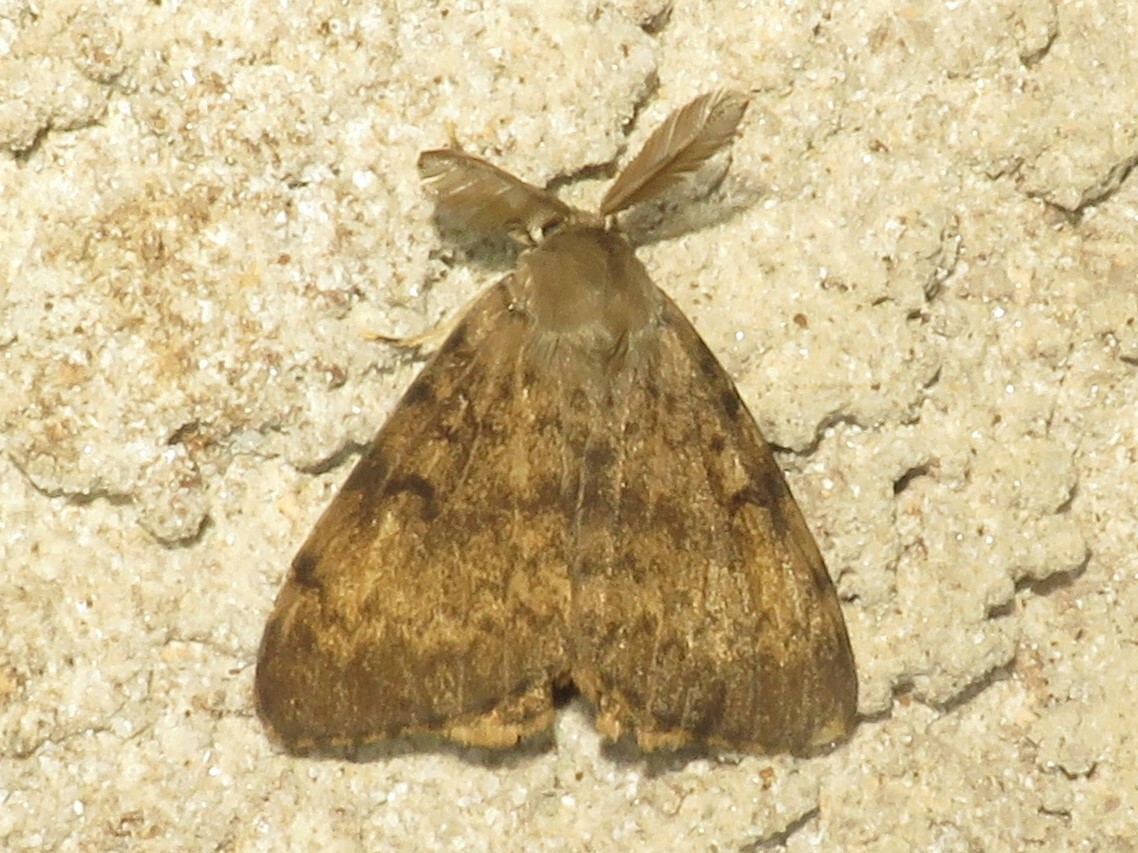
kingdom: Animalia
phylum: Arthropoda
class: Insecta
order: Lepidoptera
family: Erebidae
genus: Lymantria
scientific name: Lymantria dispar
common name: Gypsy moth
